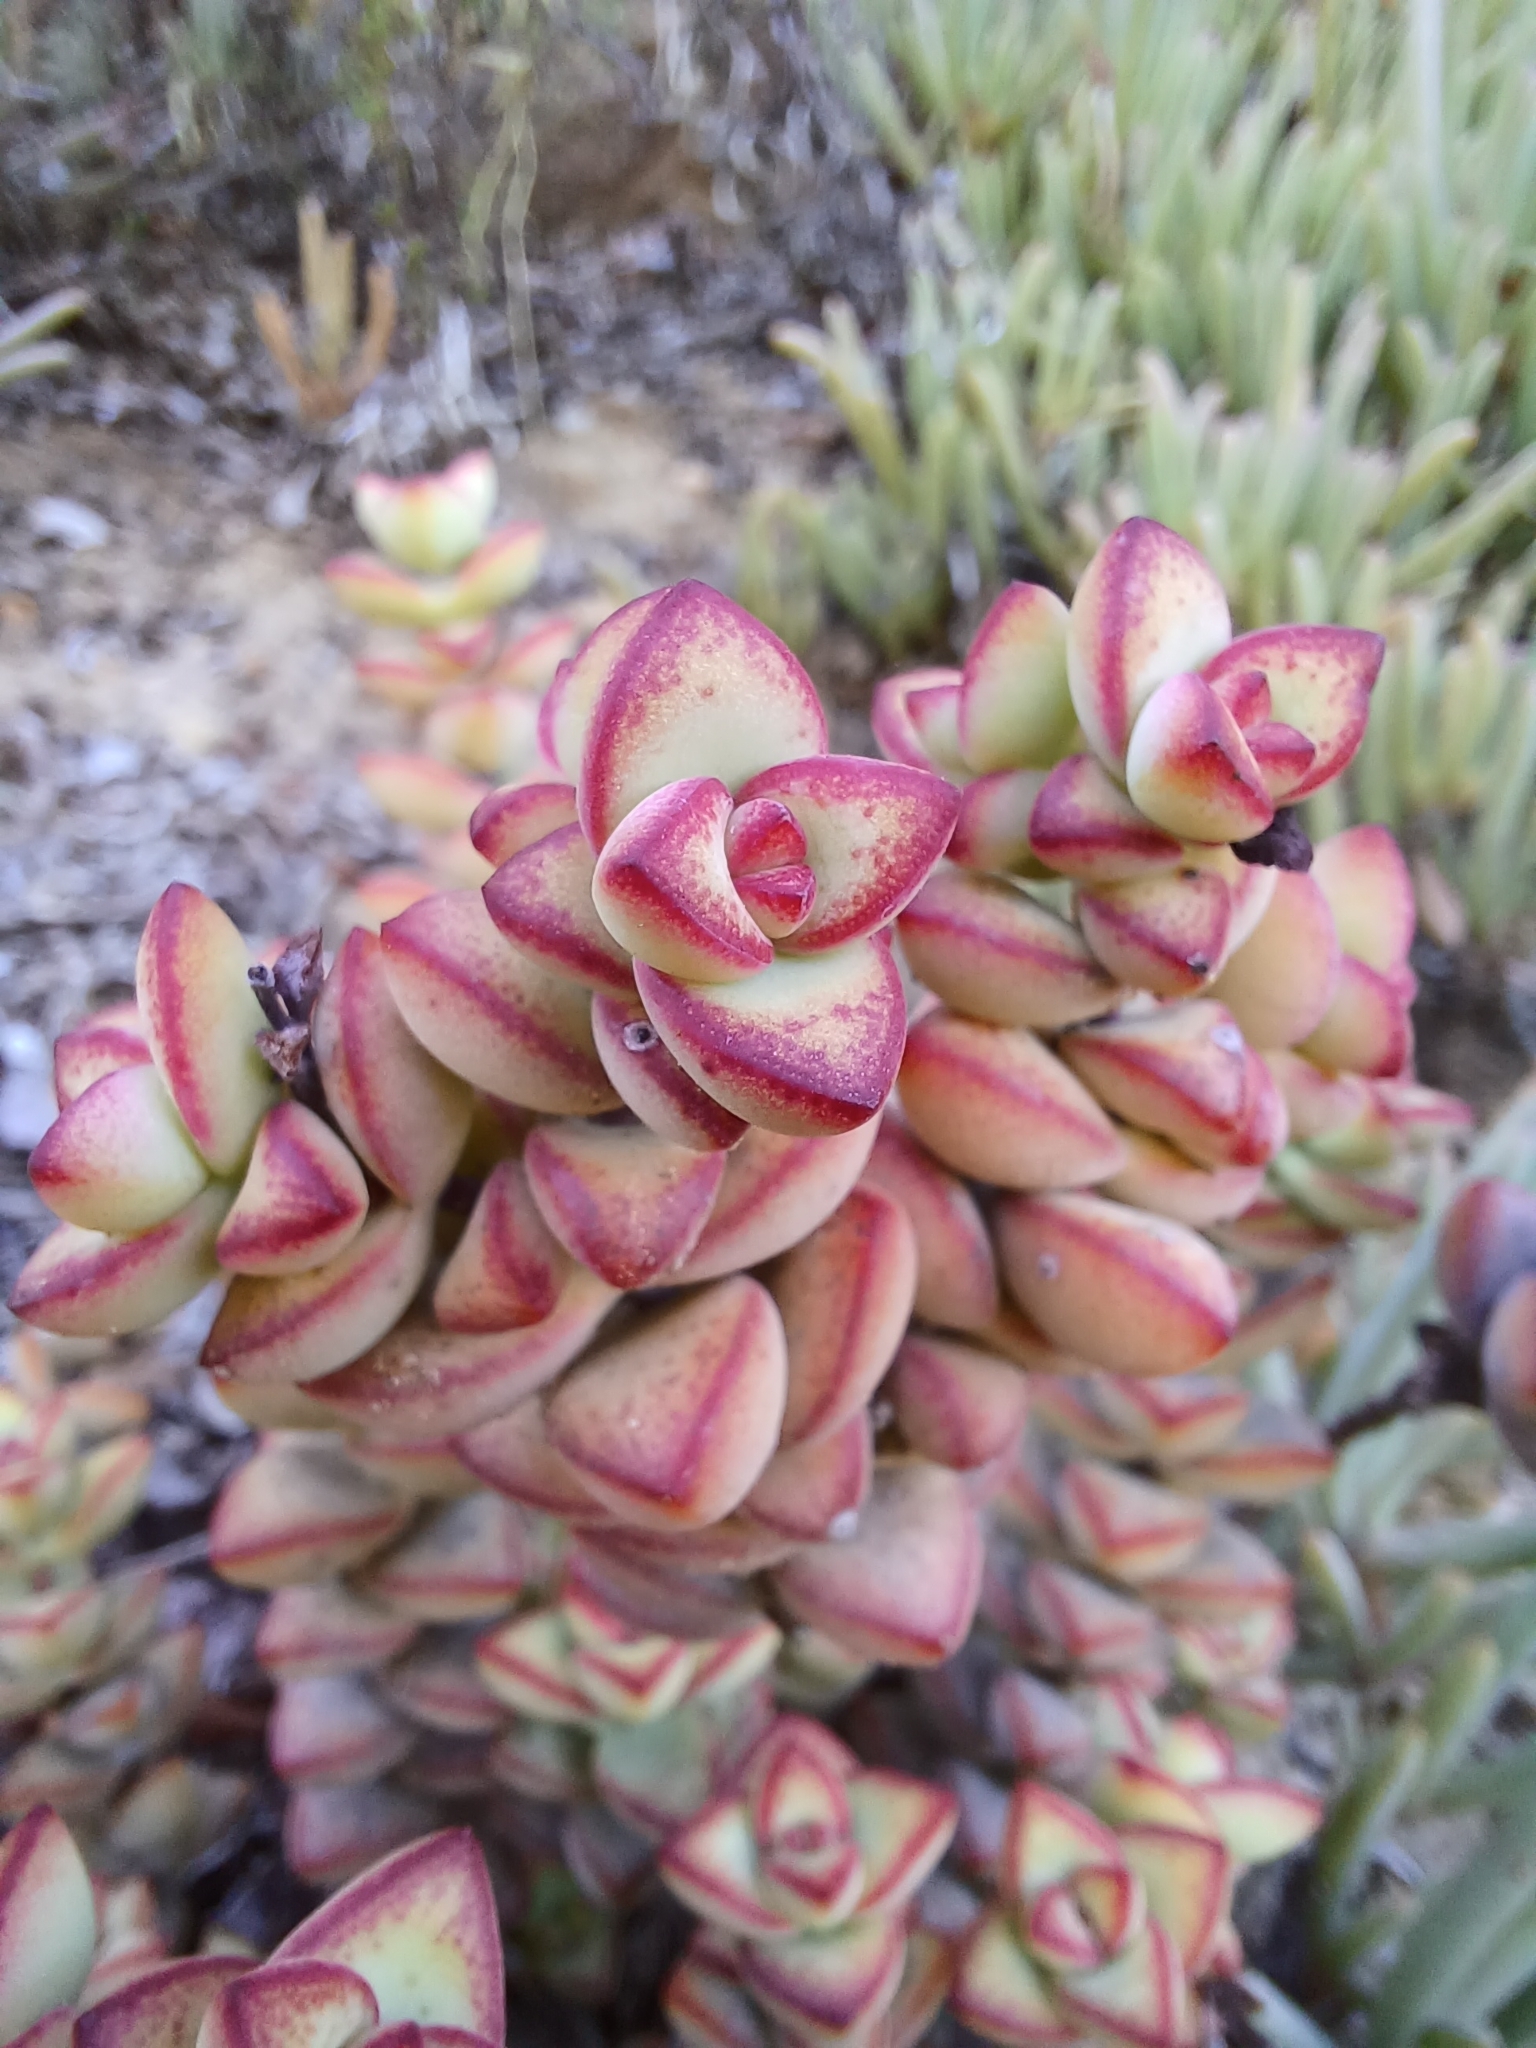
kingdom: Plantae
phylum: Tracheophyta
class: Magnoliopsida
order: Saxifragales
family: Crassulaceae
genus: Crassula
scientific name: Crassula rupestris
